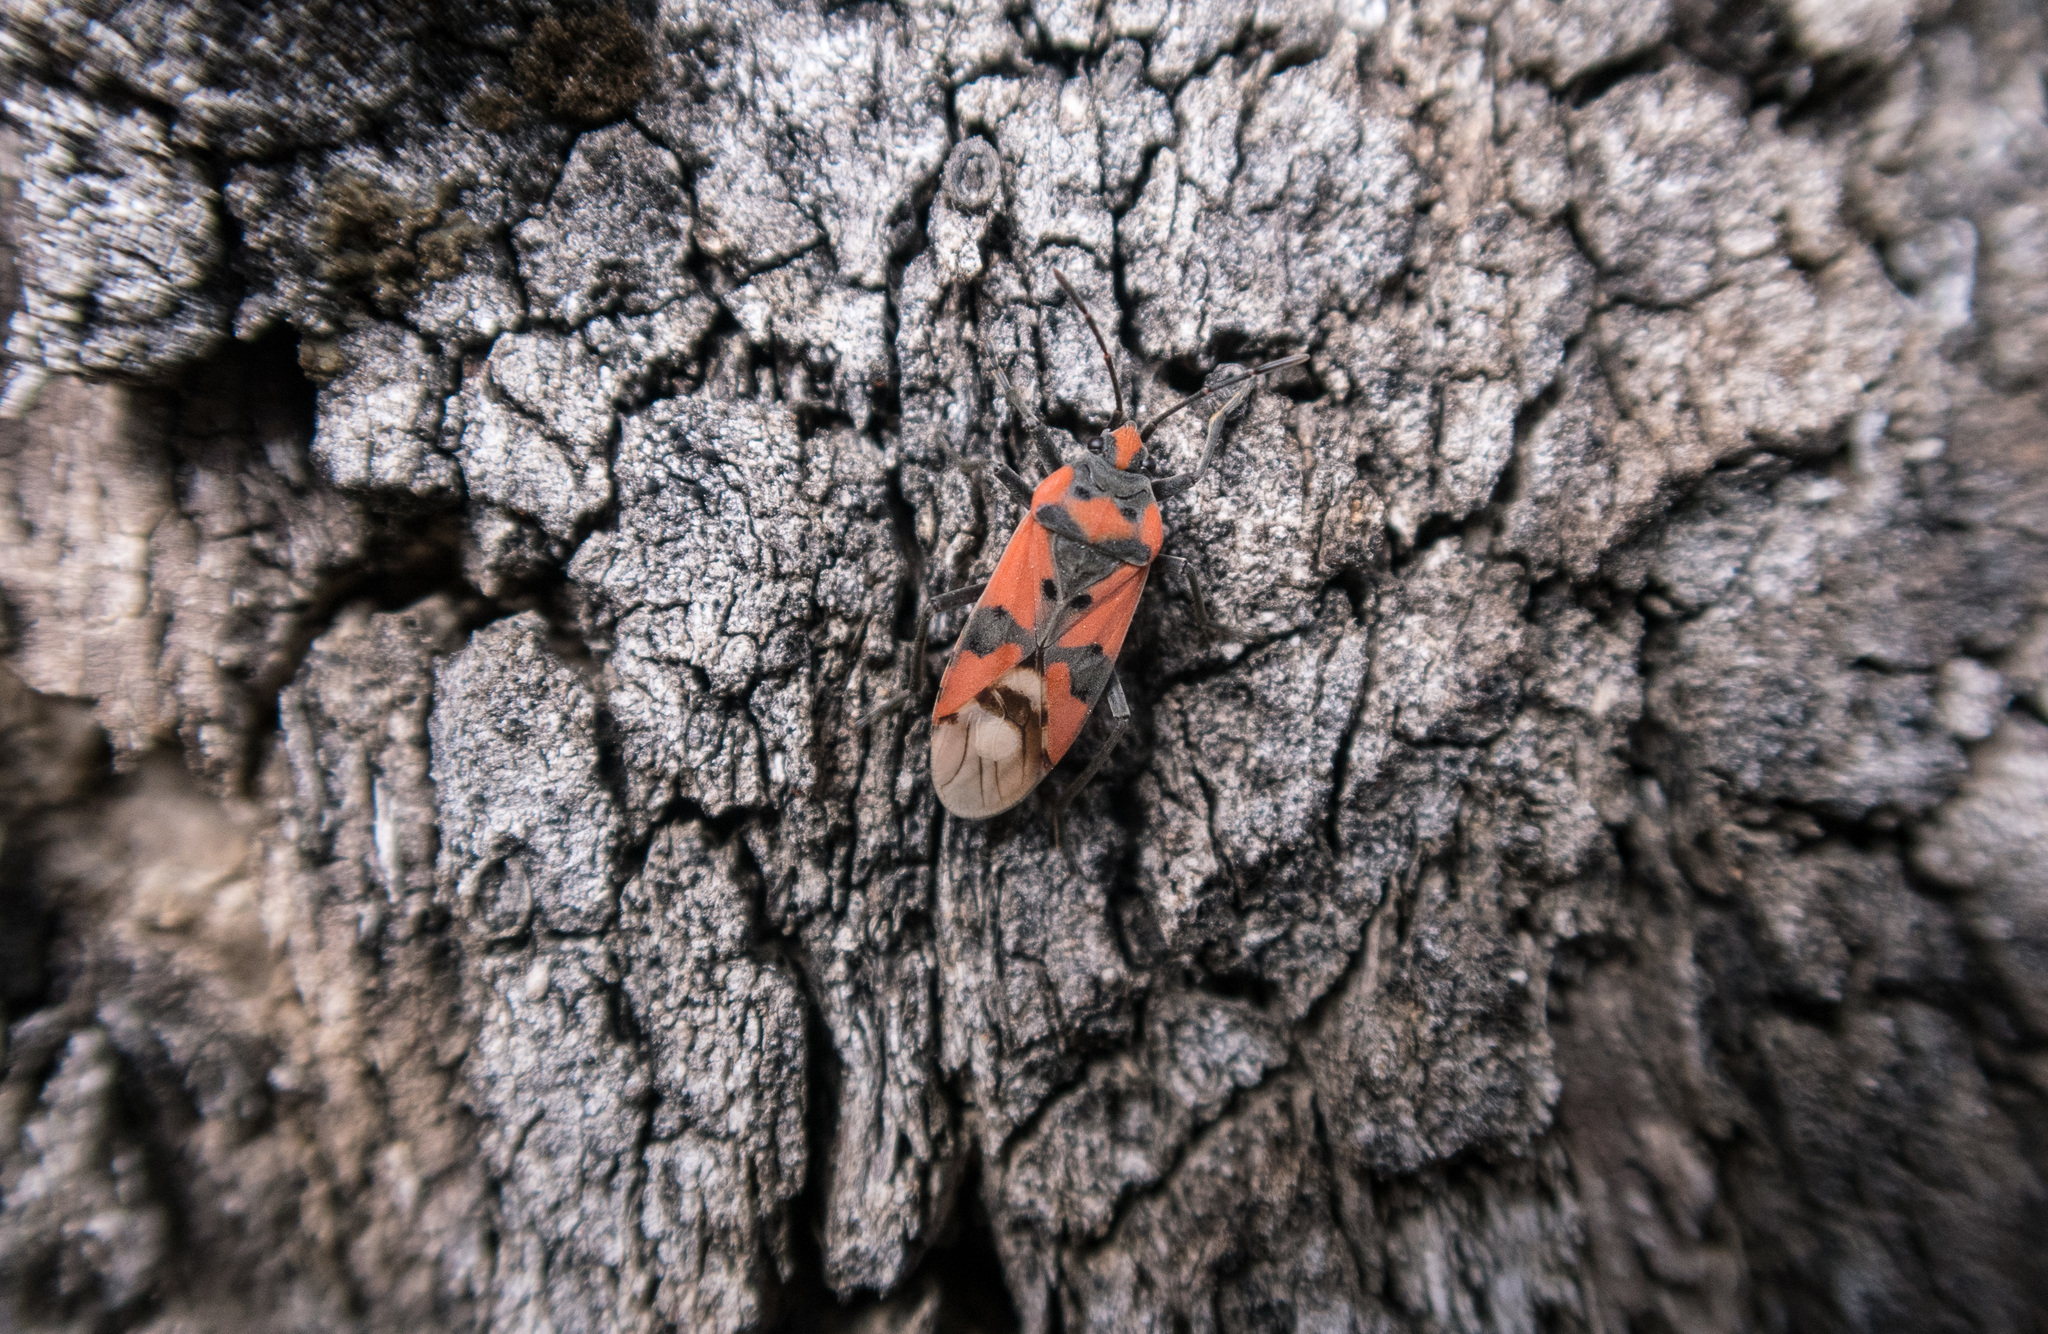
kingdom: Animalia
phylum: Arthropoda
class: Insecta
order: Hemiptera
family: Lygaeidae
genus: Lygaeus
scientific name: Lygaeus equestris
